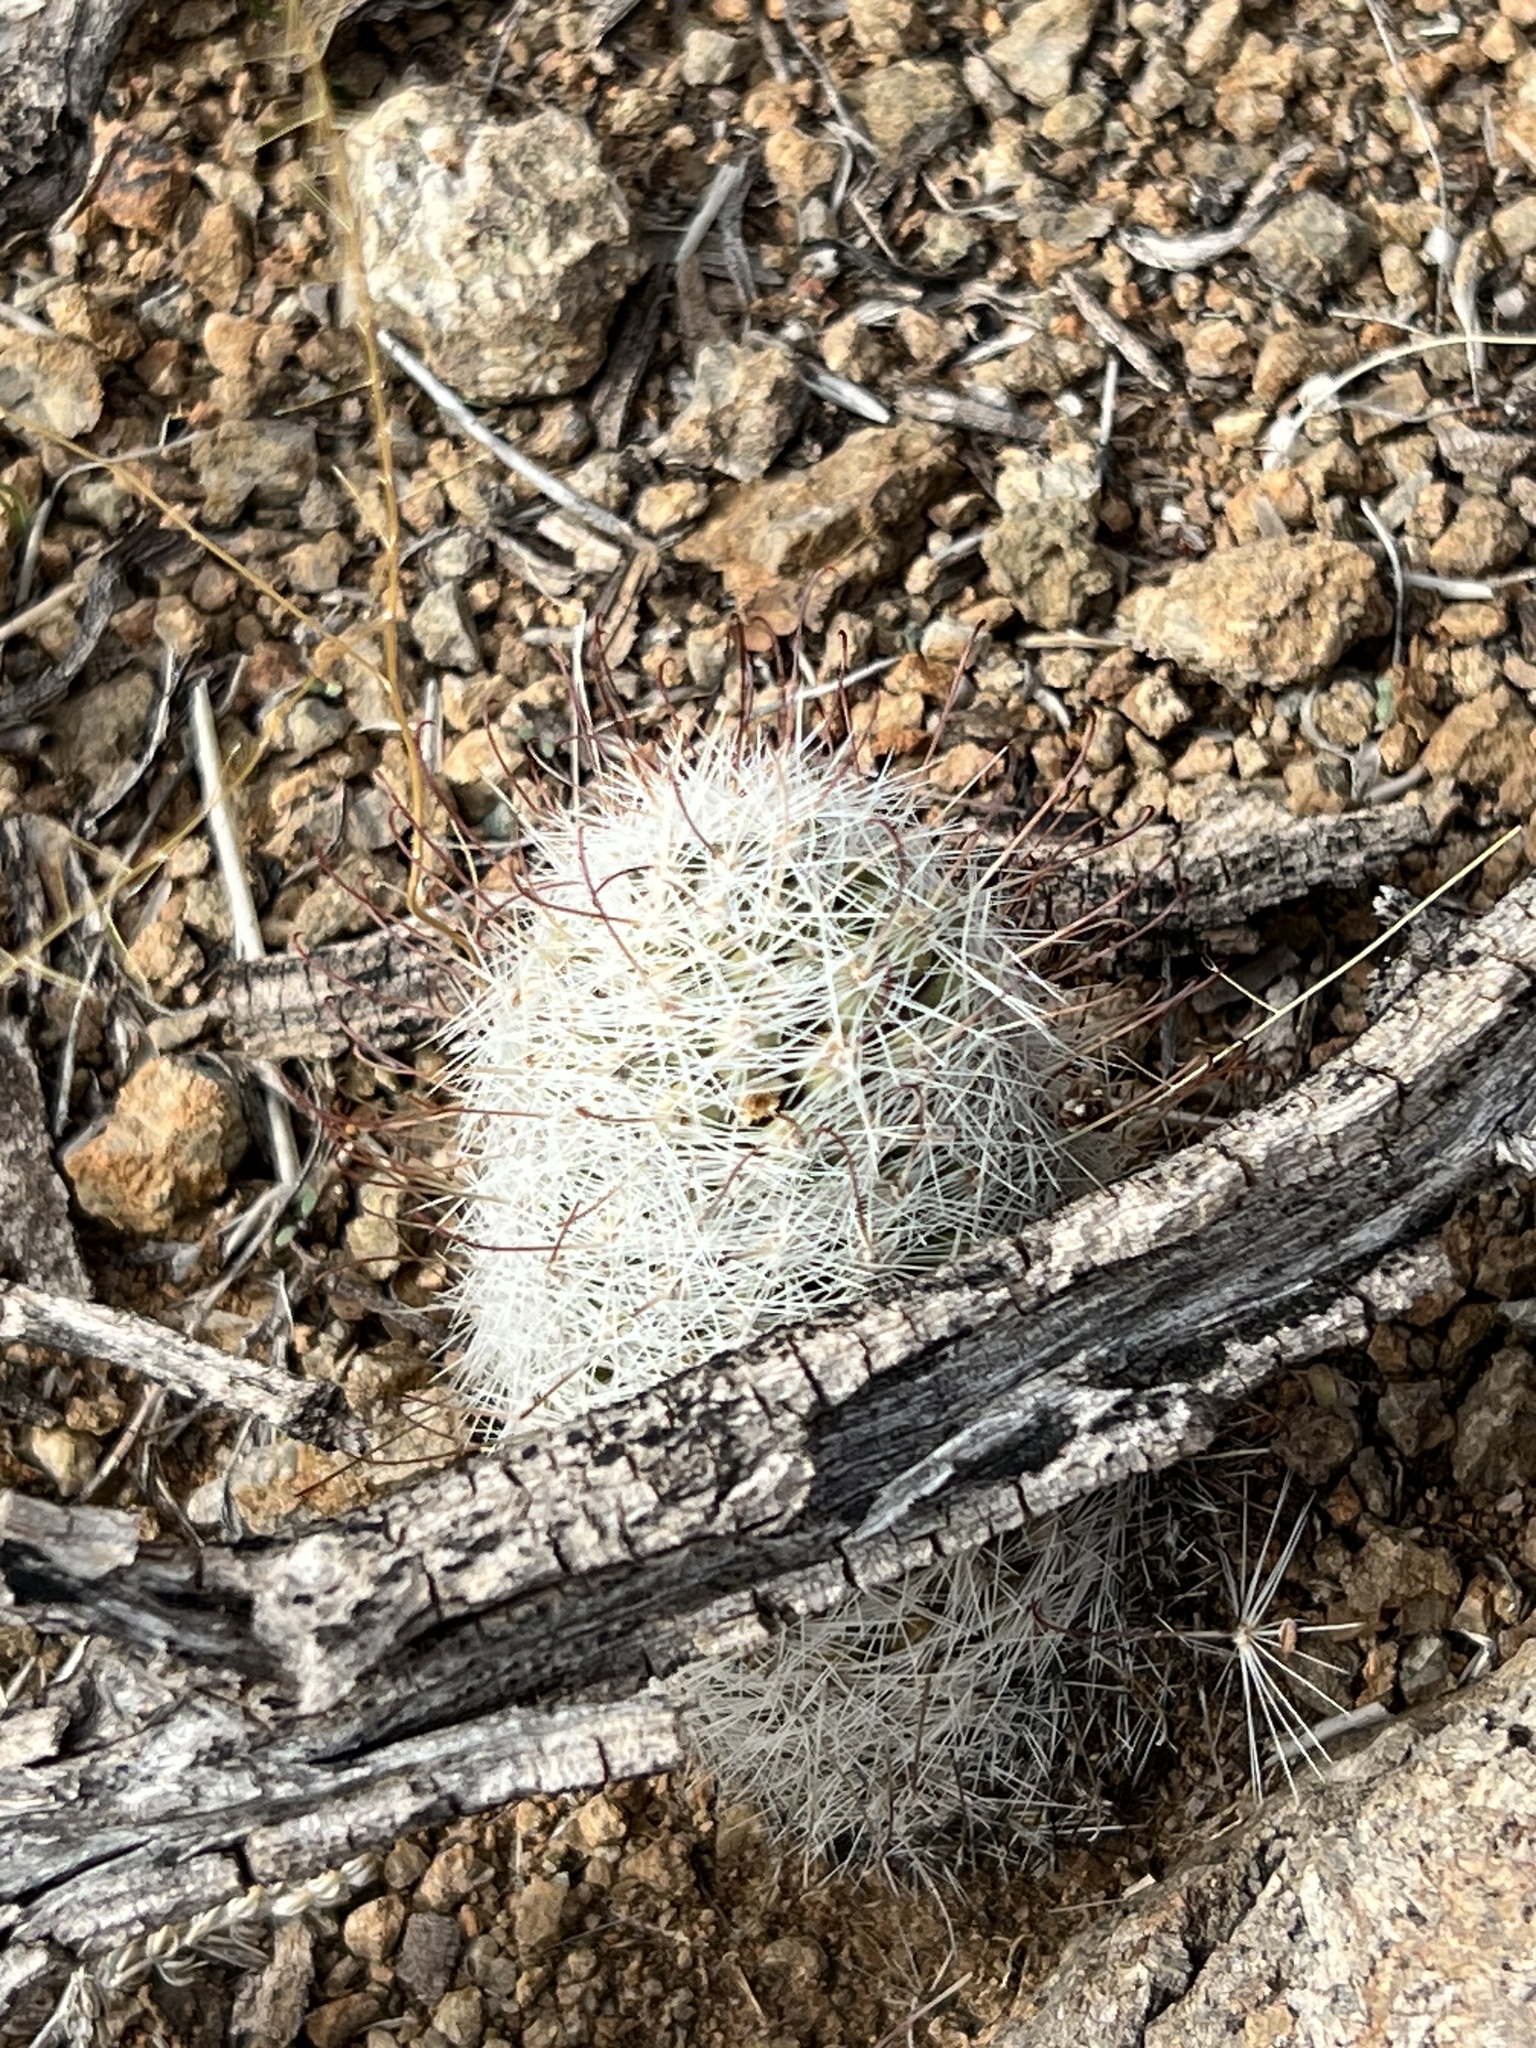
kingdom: Plantae
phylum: Tracheophyta
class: Magnoliopsida
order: Caryophyllales
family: Cactaceae
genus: Cochemiea
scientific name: Cochemiea grahamii
